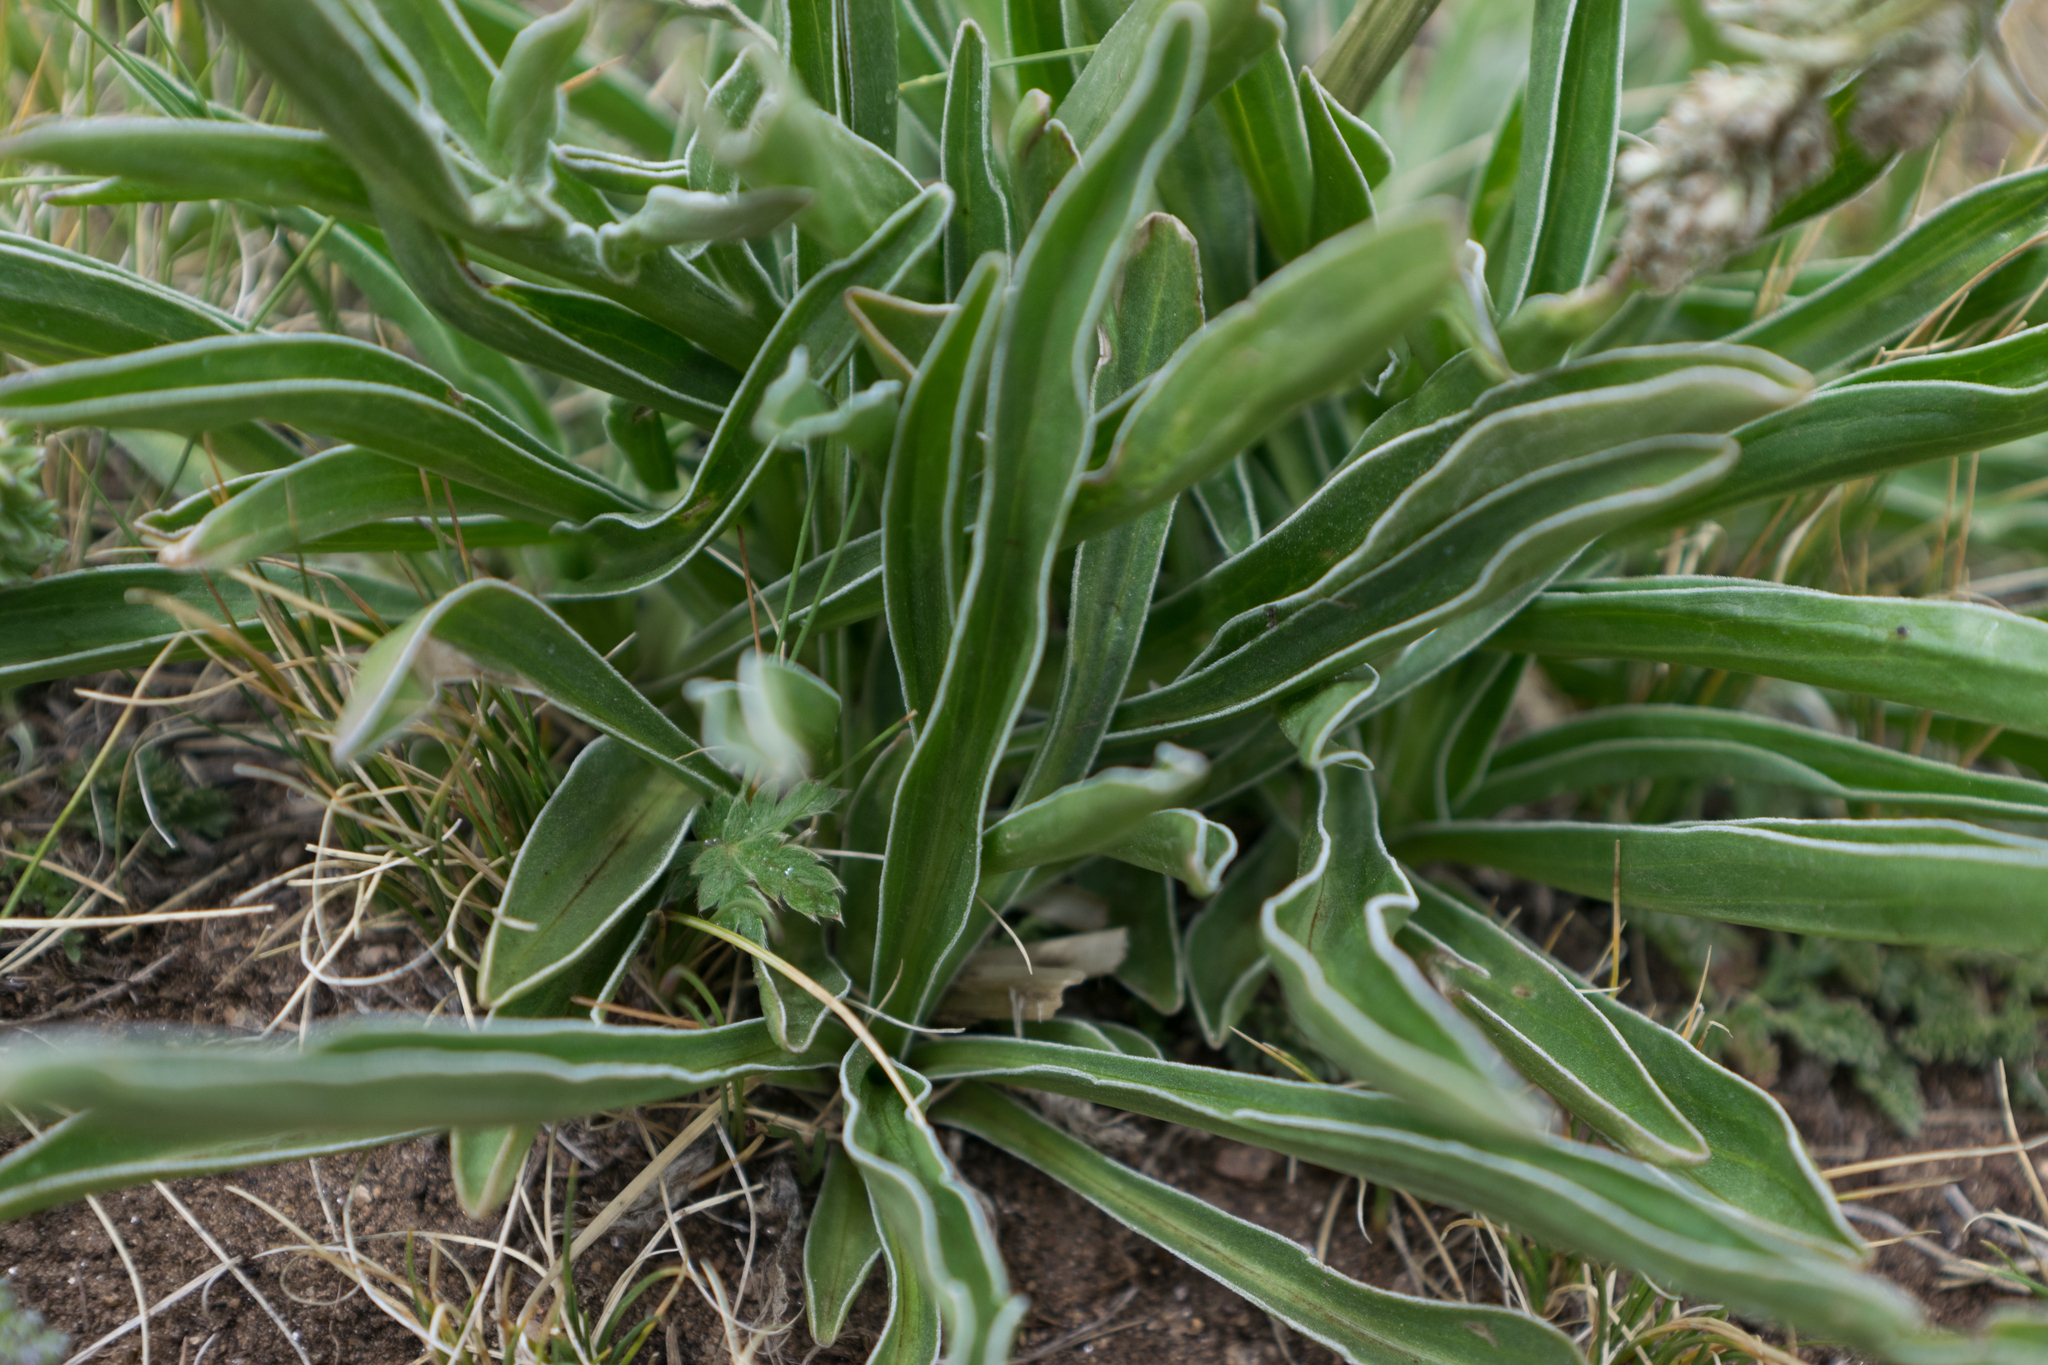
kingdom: Plantae
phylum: Tracheophyta
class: Magnoliopsida
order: Dipsacales
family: Caprifoliaceae
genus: Valeriana
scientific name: Valeriana edulis
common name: Taproot valerian
